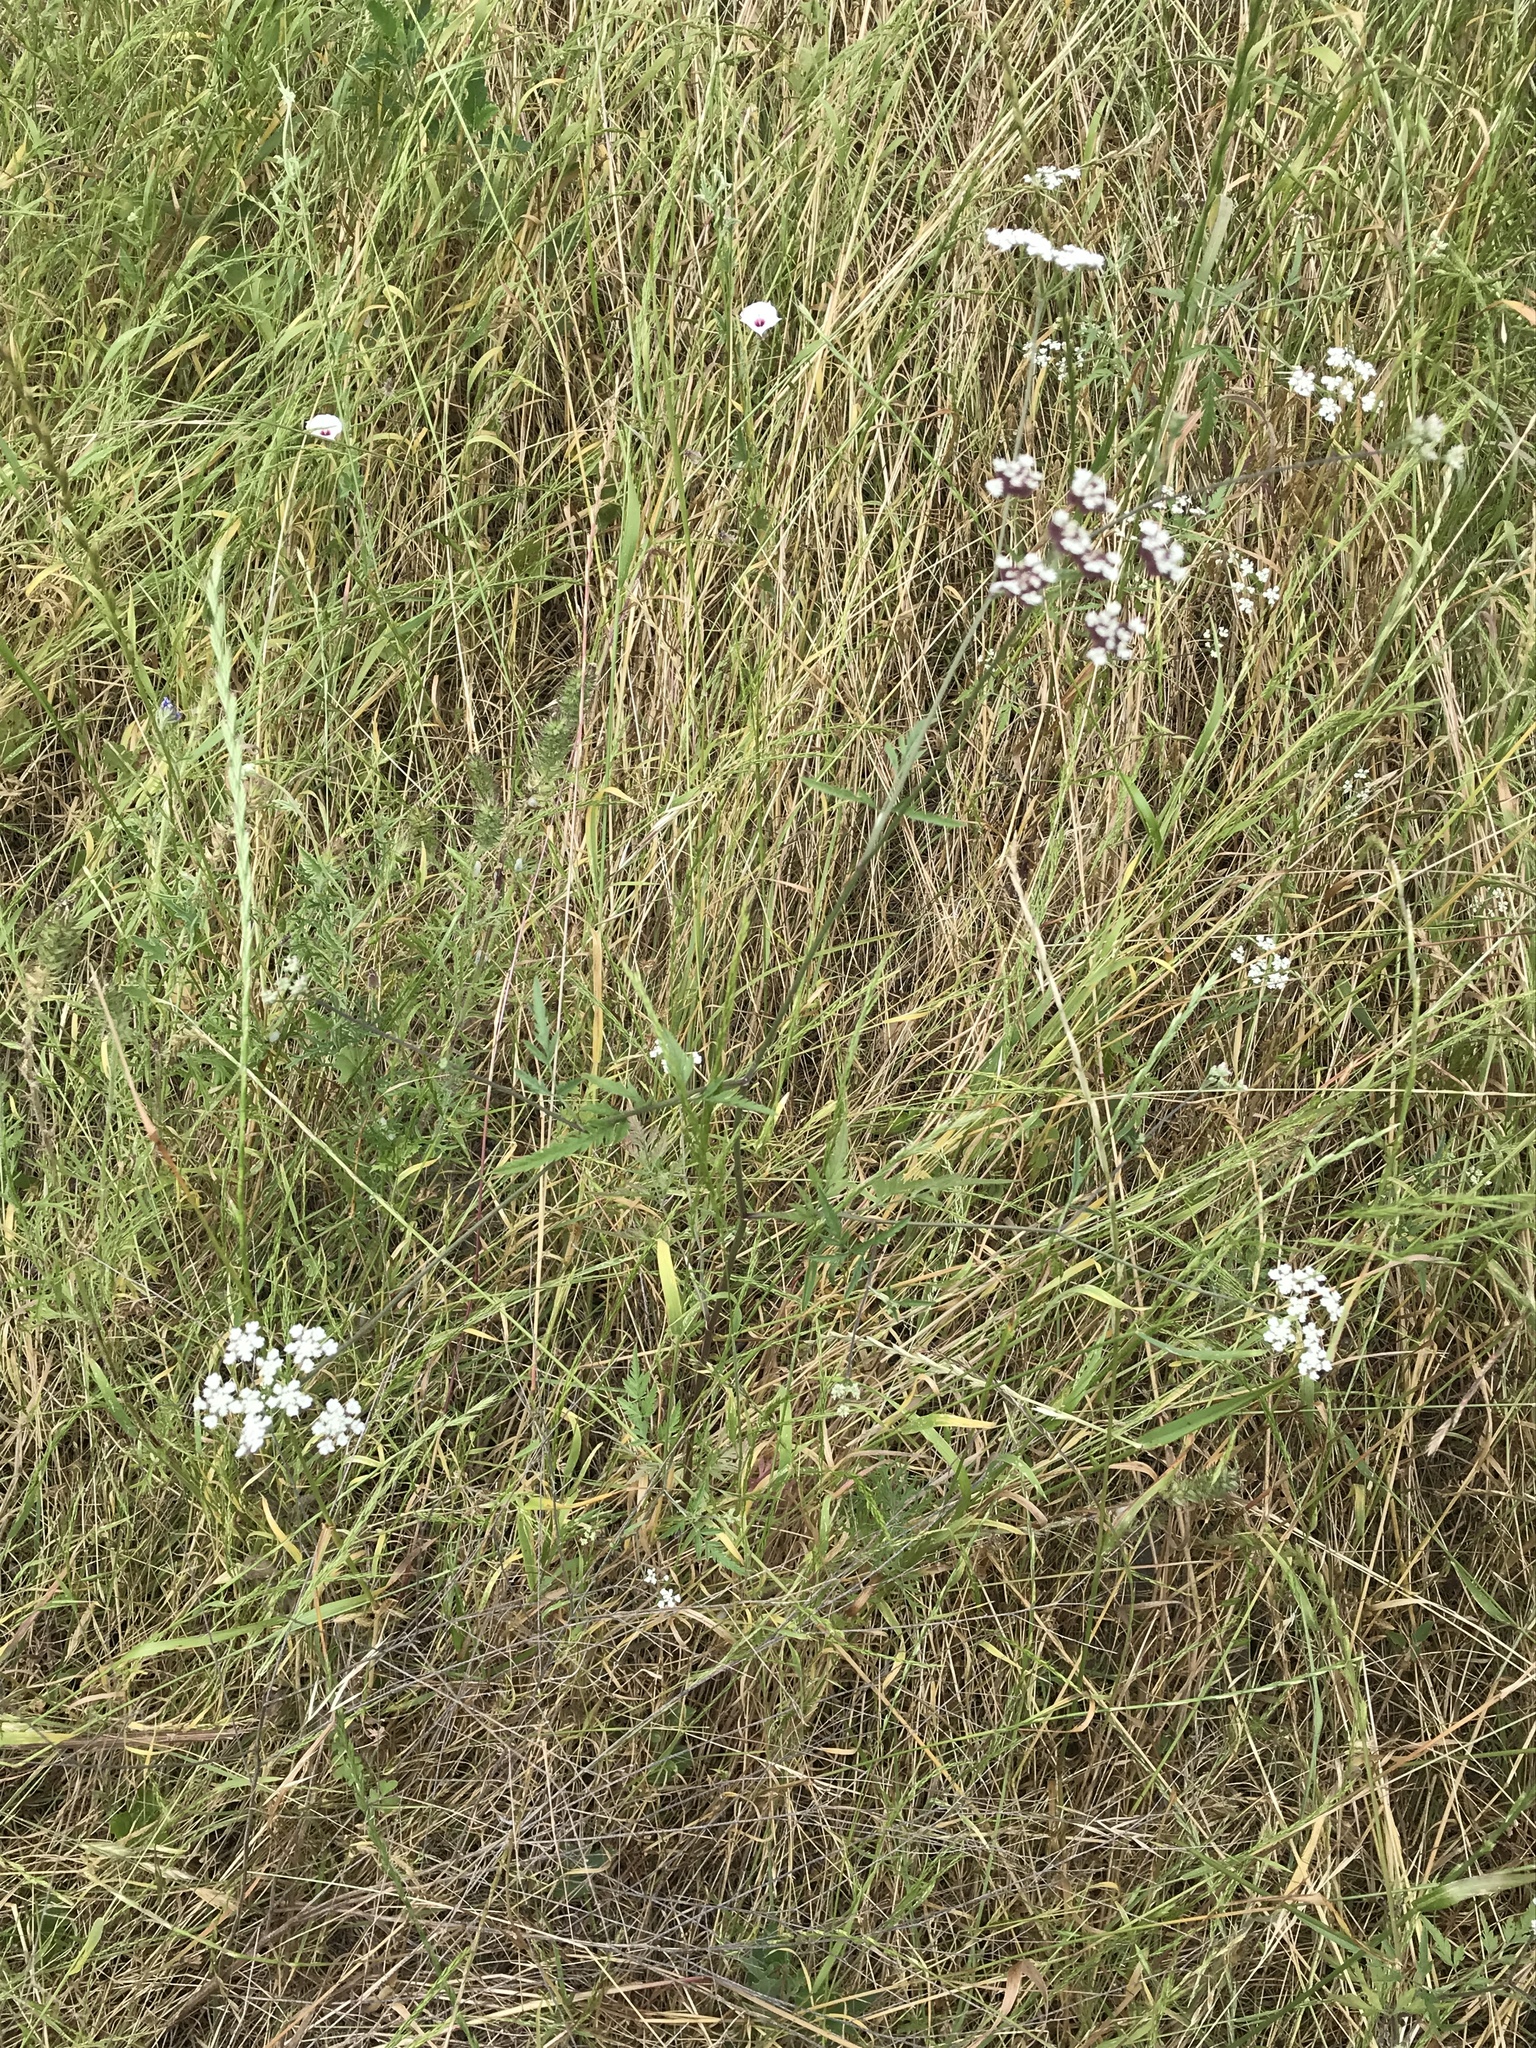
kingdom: Plantae
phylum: Tracheophyta
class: Magnoliopsida
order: Apiales
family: Apiaceae
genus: Torilis
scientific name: Torilis arvensis
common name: Spreading hedge-parsley
